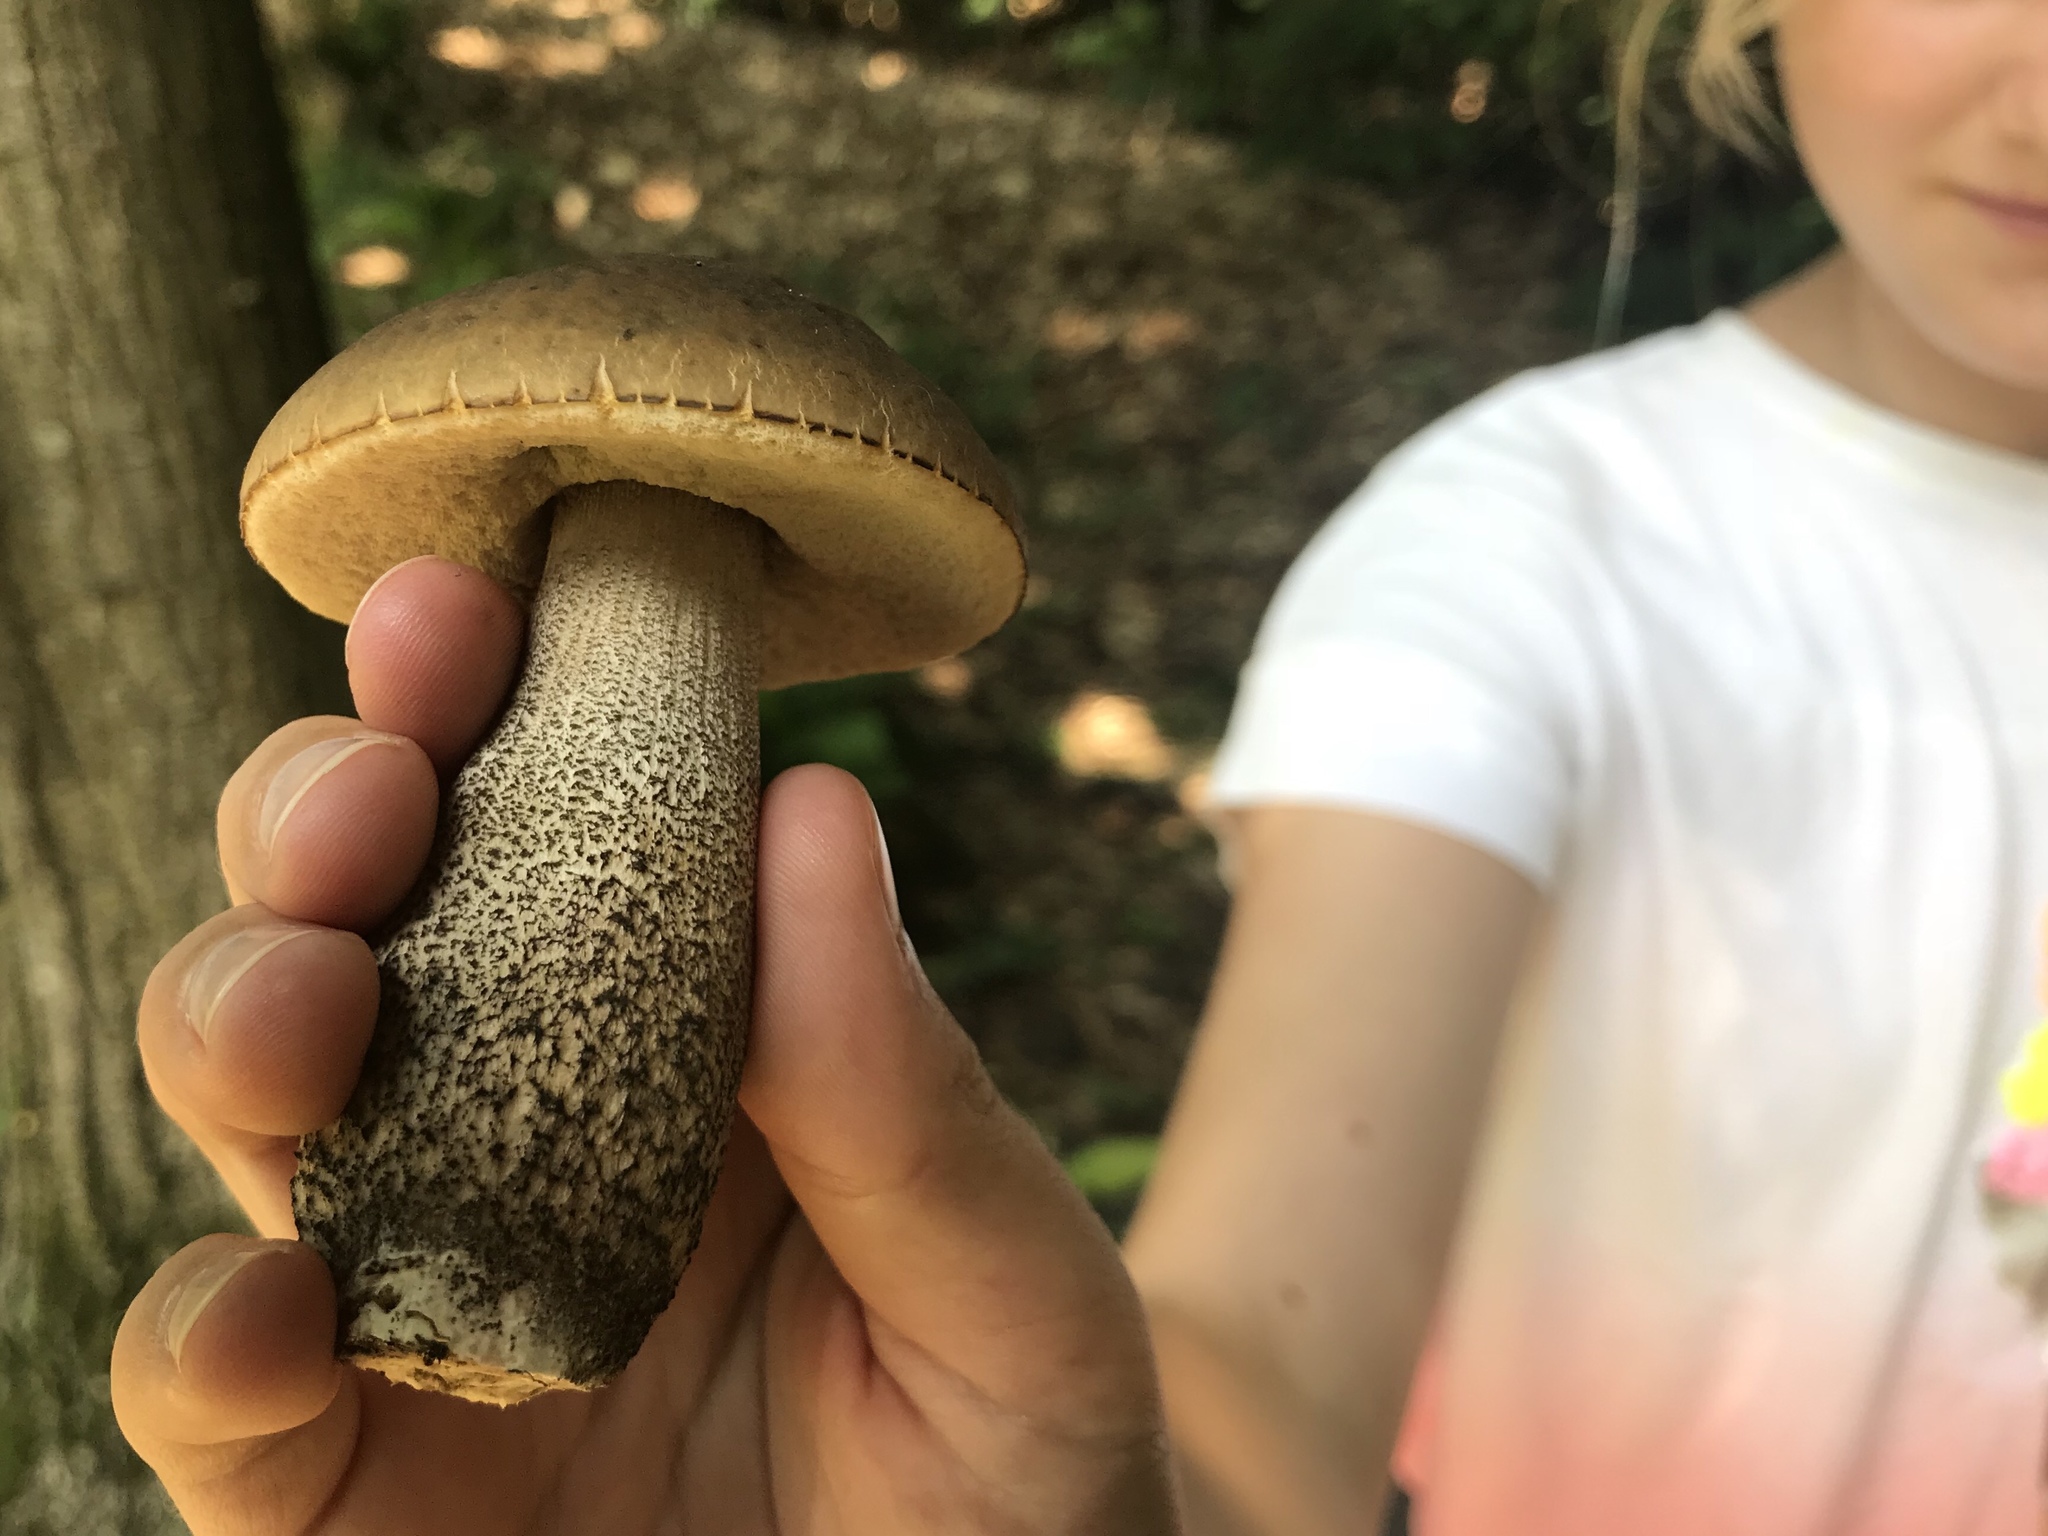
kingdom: Fungi
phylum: Basidiomycota
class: Agaricomycetes
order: Boletales
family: Boletaceae
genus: Leccinellum
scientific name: Leccinellum griseum
